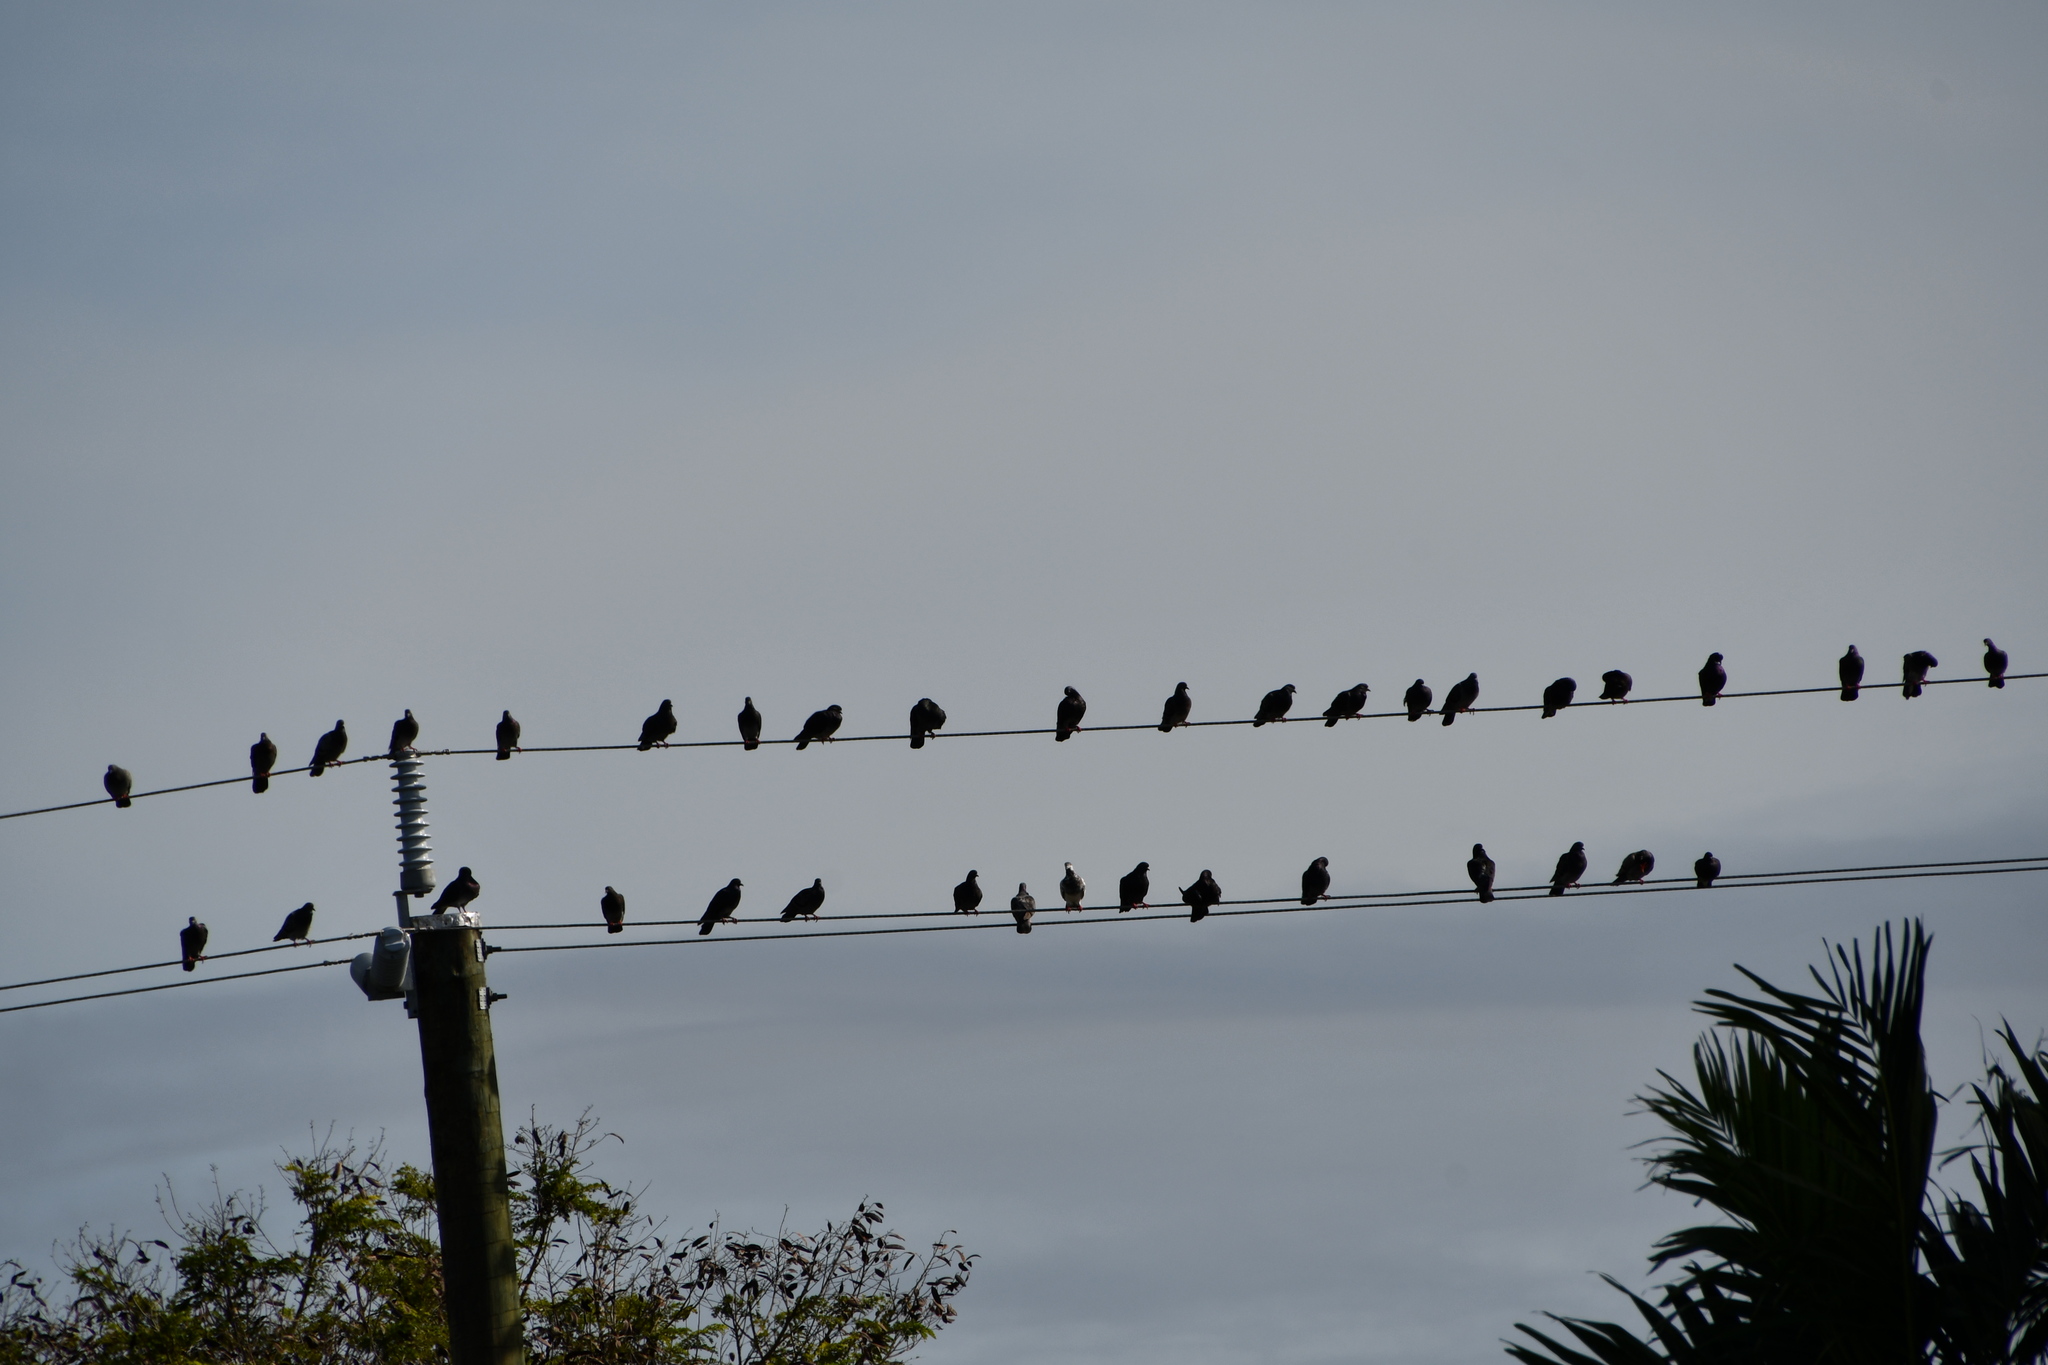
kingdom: Animalia
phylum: Chordata
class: Aves
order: Columbiformes
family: Columbidae
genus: Columba
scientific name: Columba livia
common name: Rock pigeon
